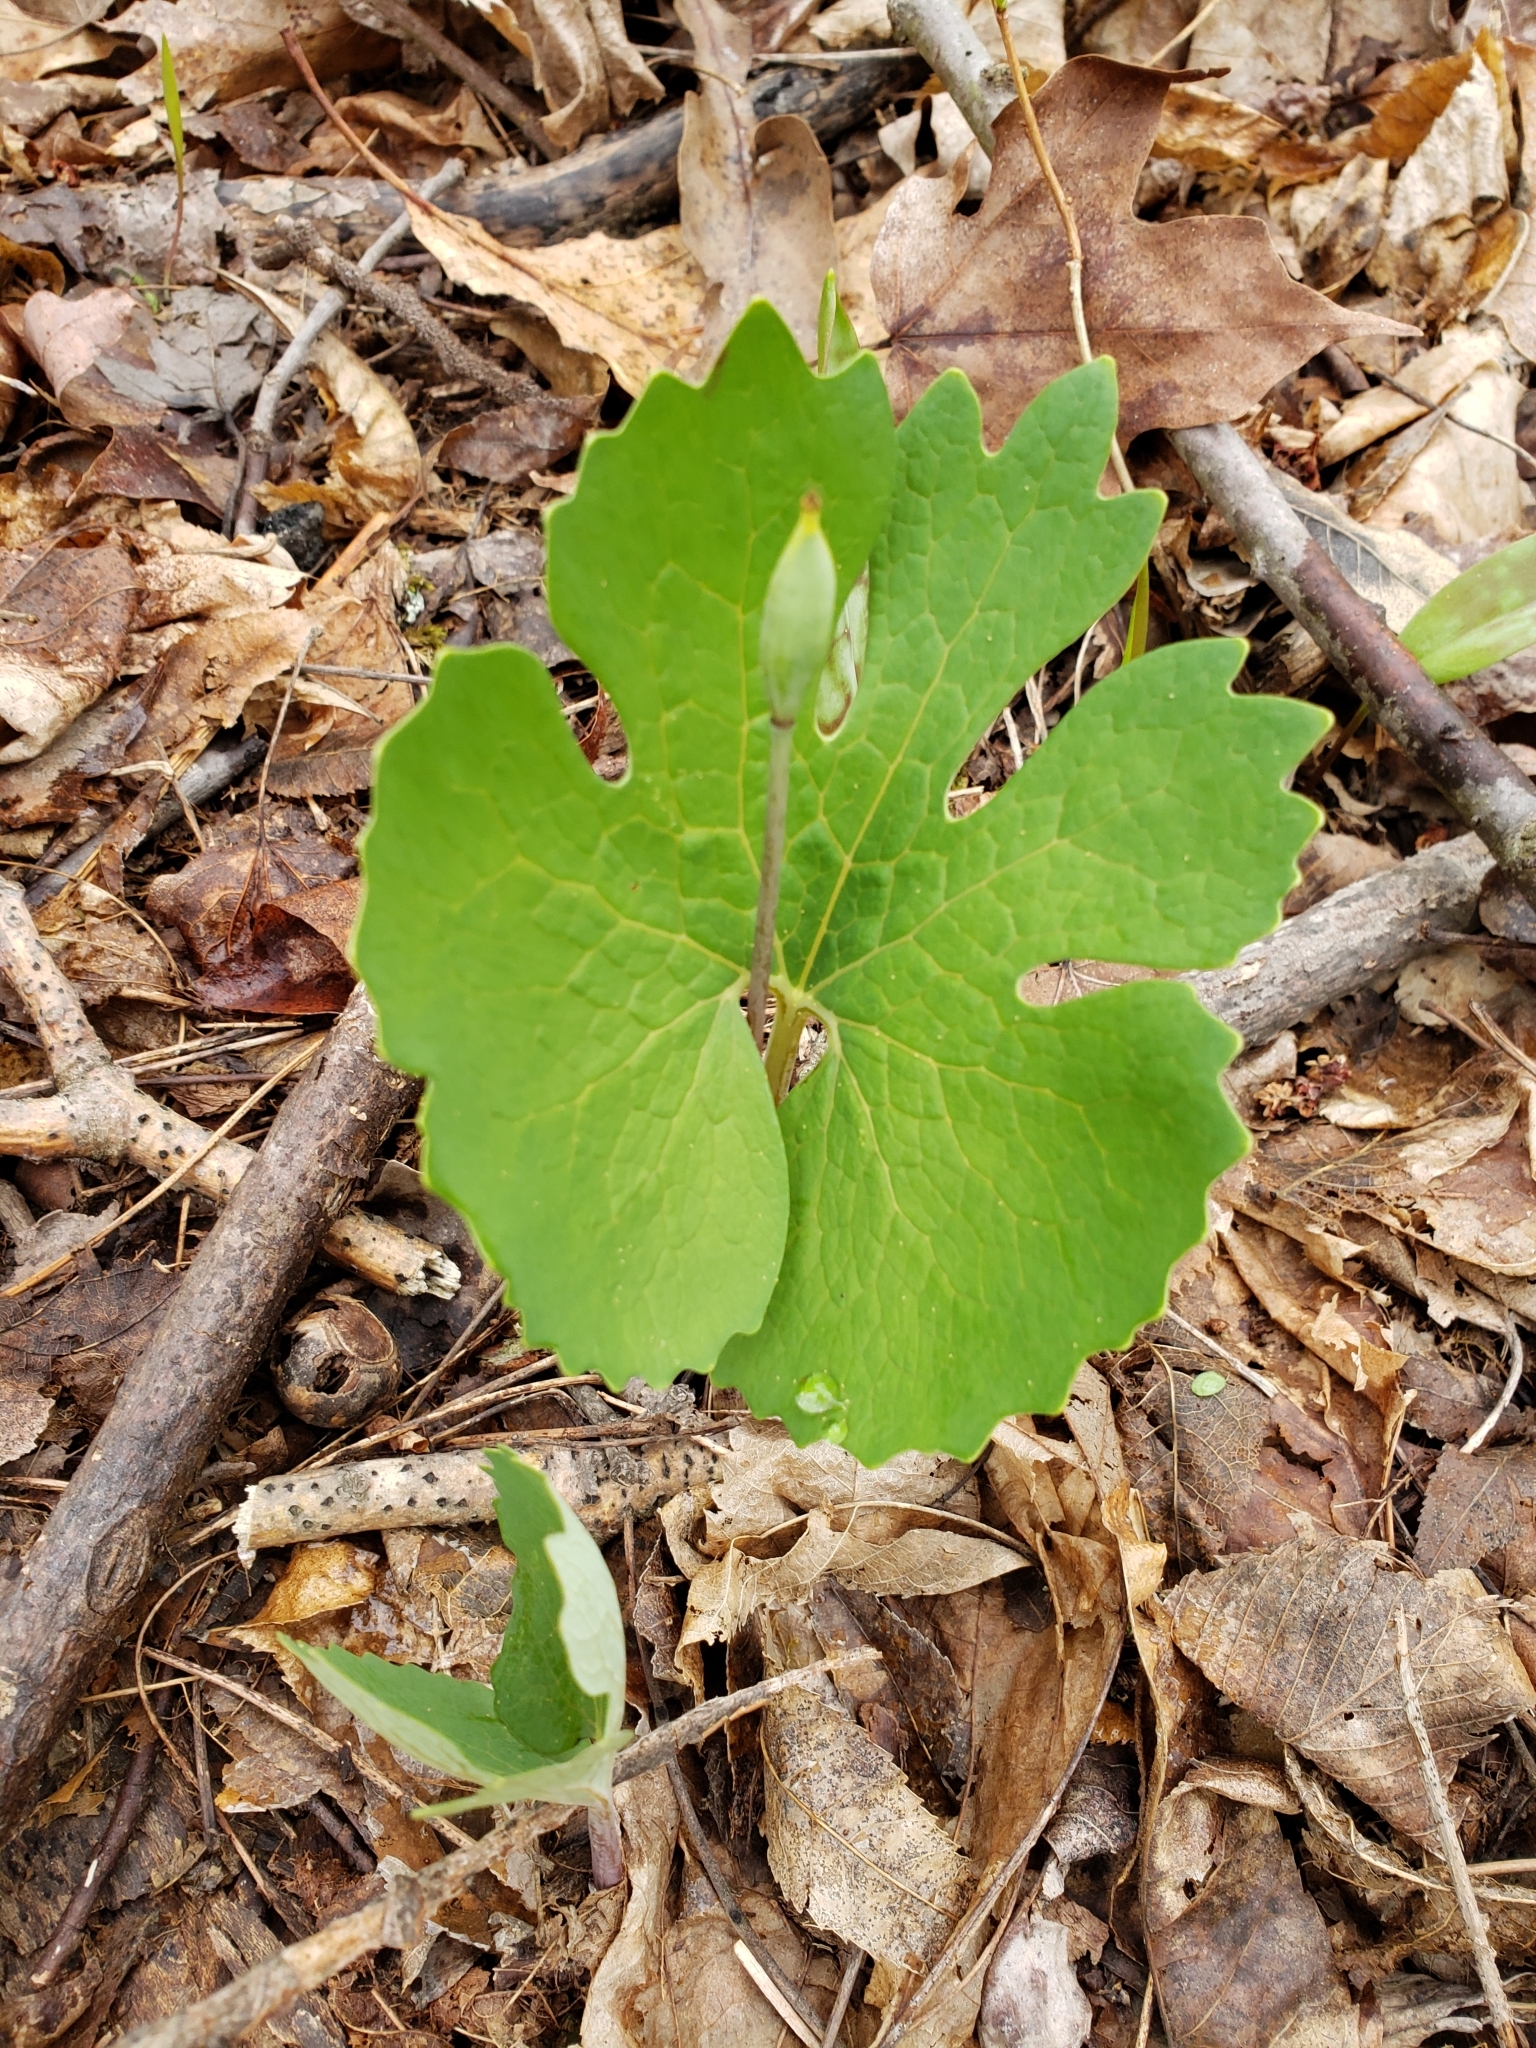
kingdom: Plantae
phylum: Tracheophyta
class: Magnoliopsida
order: Ranunculales
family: Papaveraceae
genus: Sanguinaria
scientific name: Sanguinaria canadensis
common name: Bloodroot
